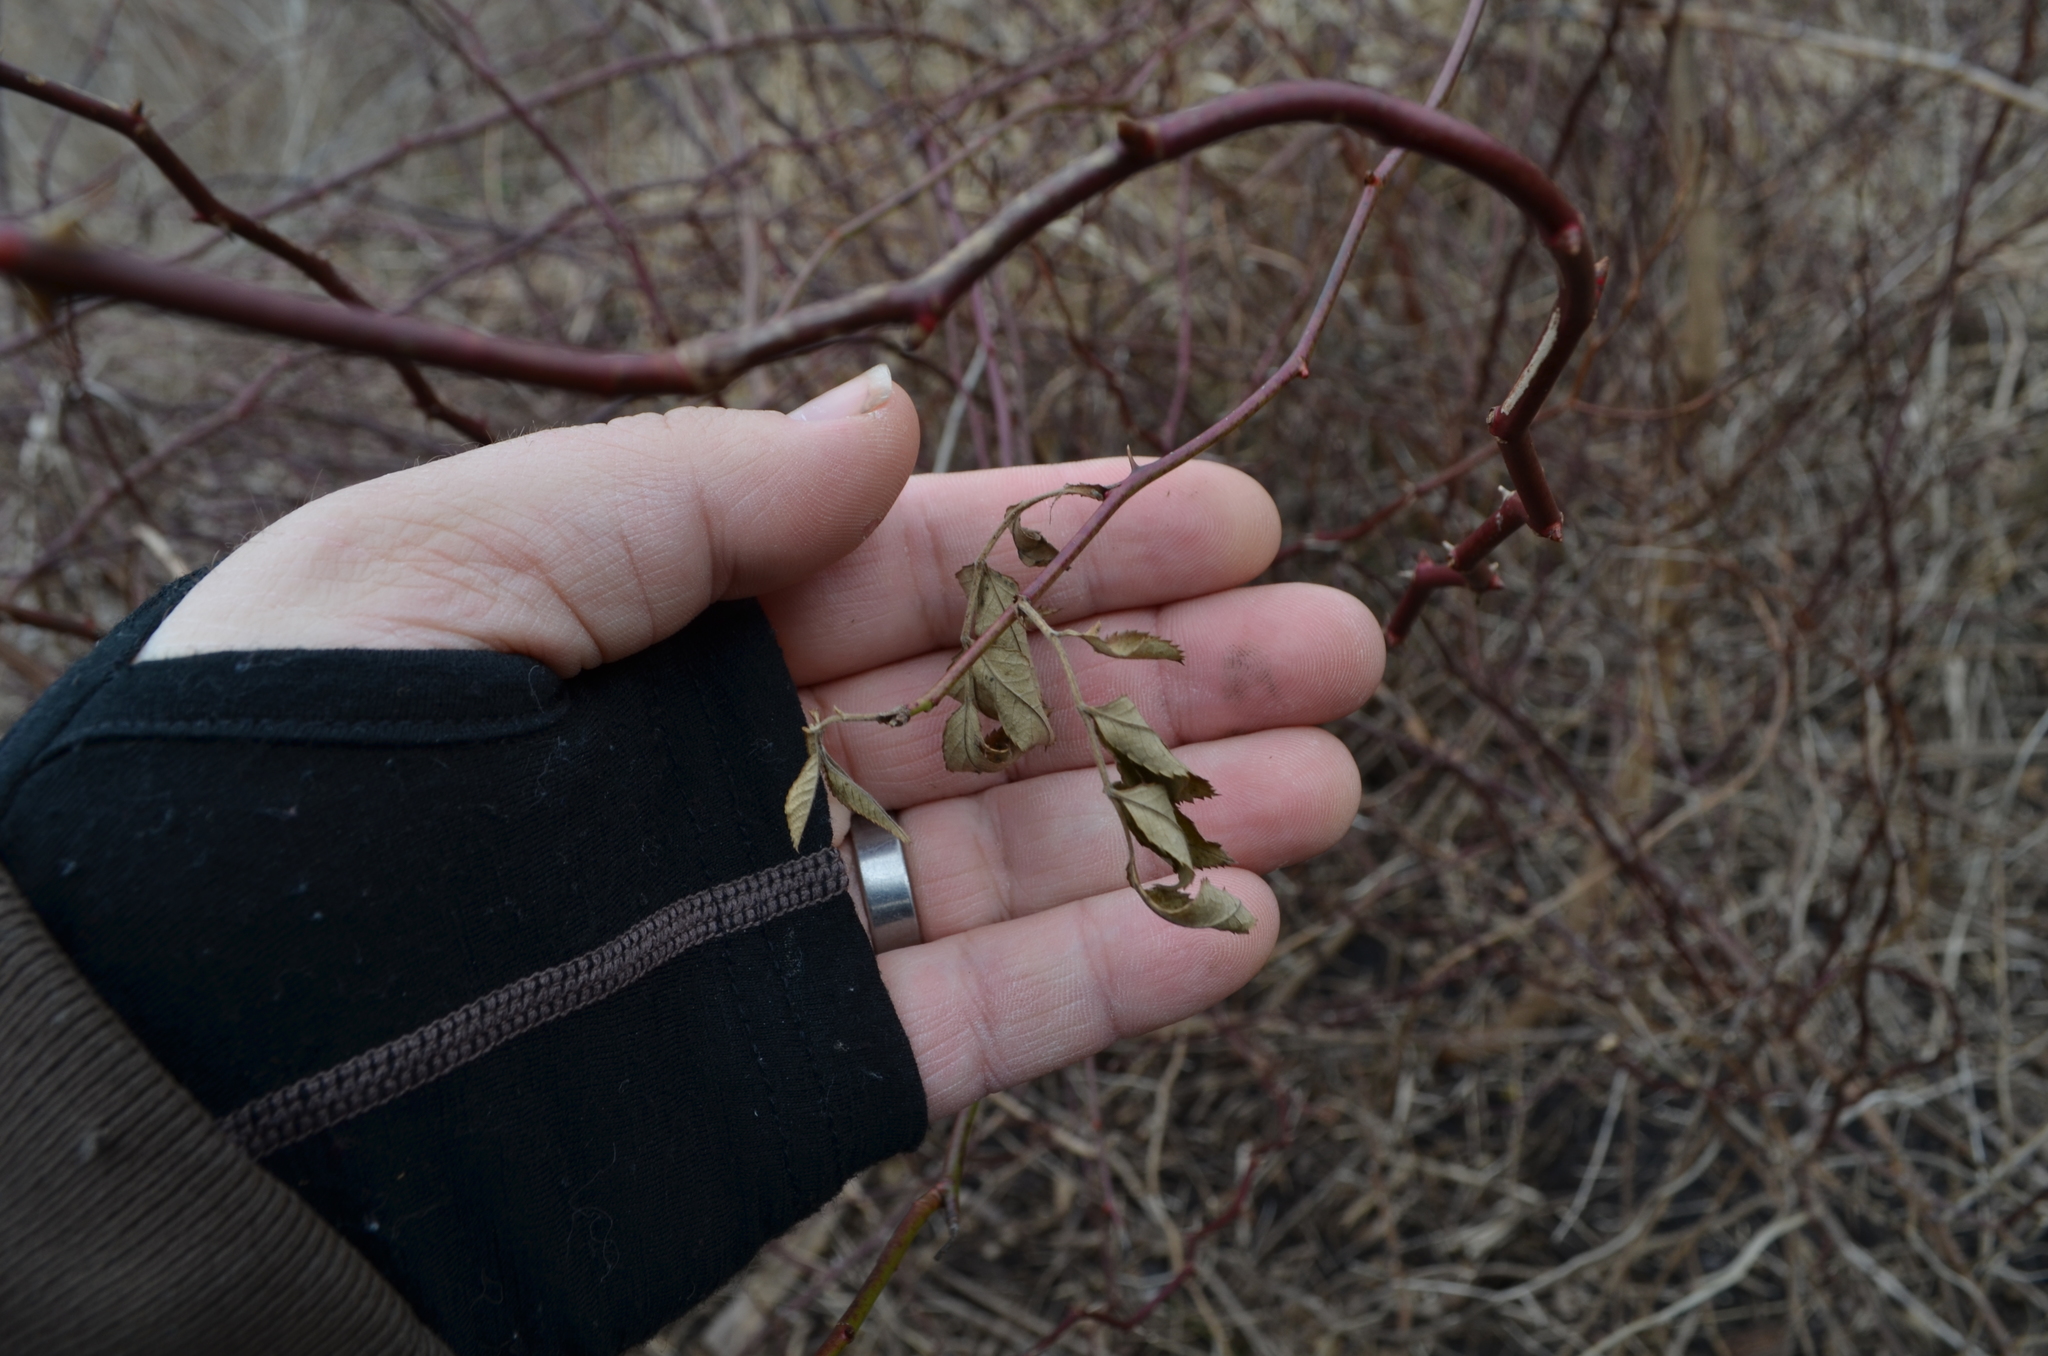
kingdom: Plantae
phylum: Tracheophyta
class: Magnoliopsida
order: Rosales
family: Rosaceae
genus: Rosa
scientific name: Rosa multiflora
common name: Multiflora rose
